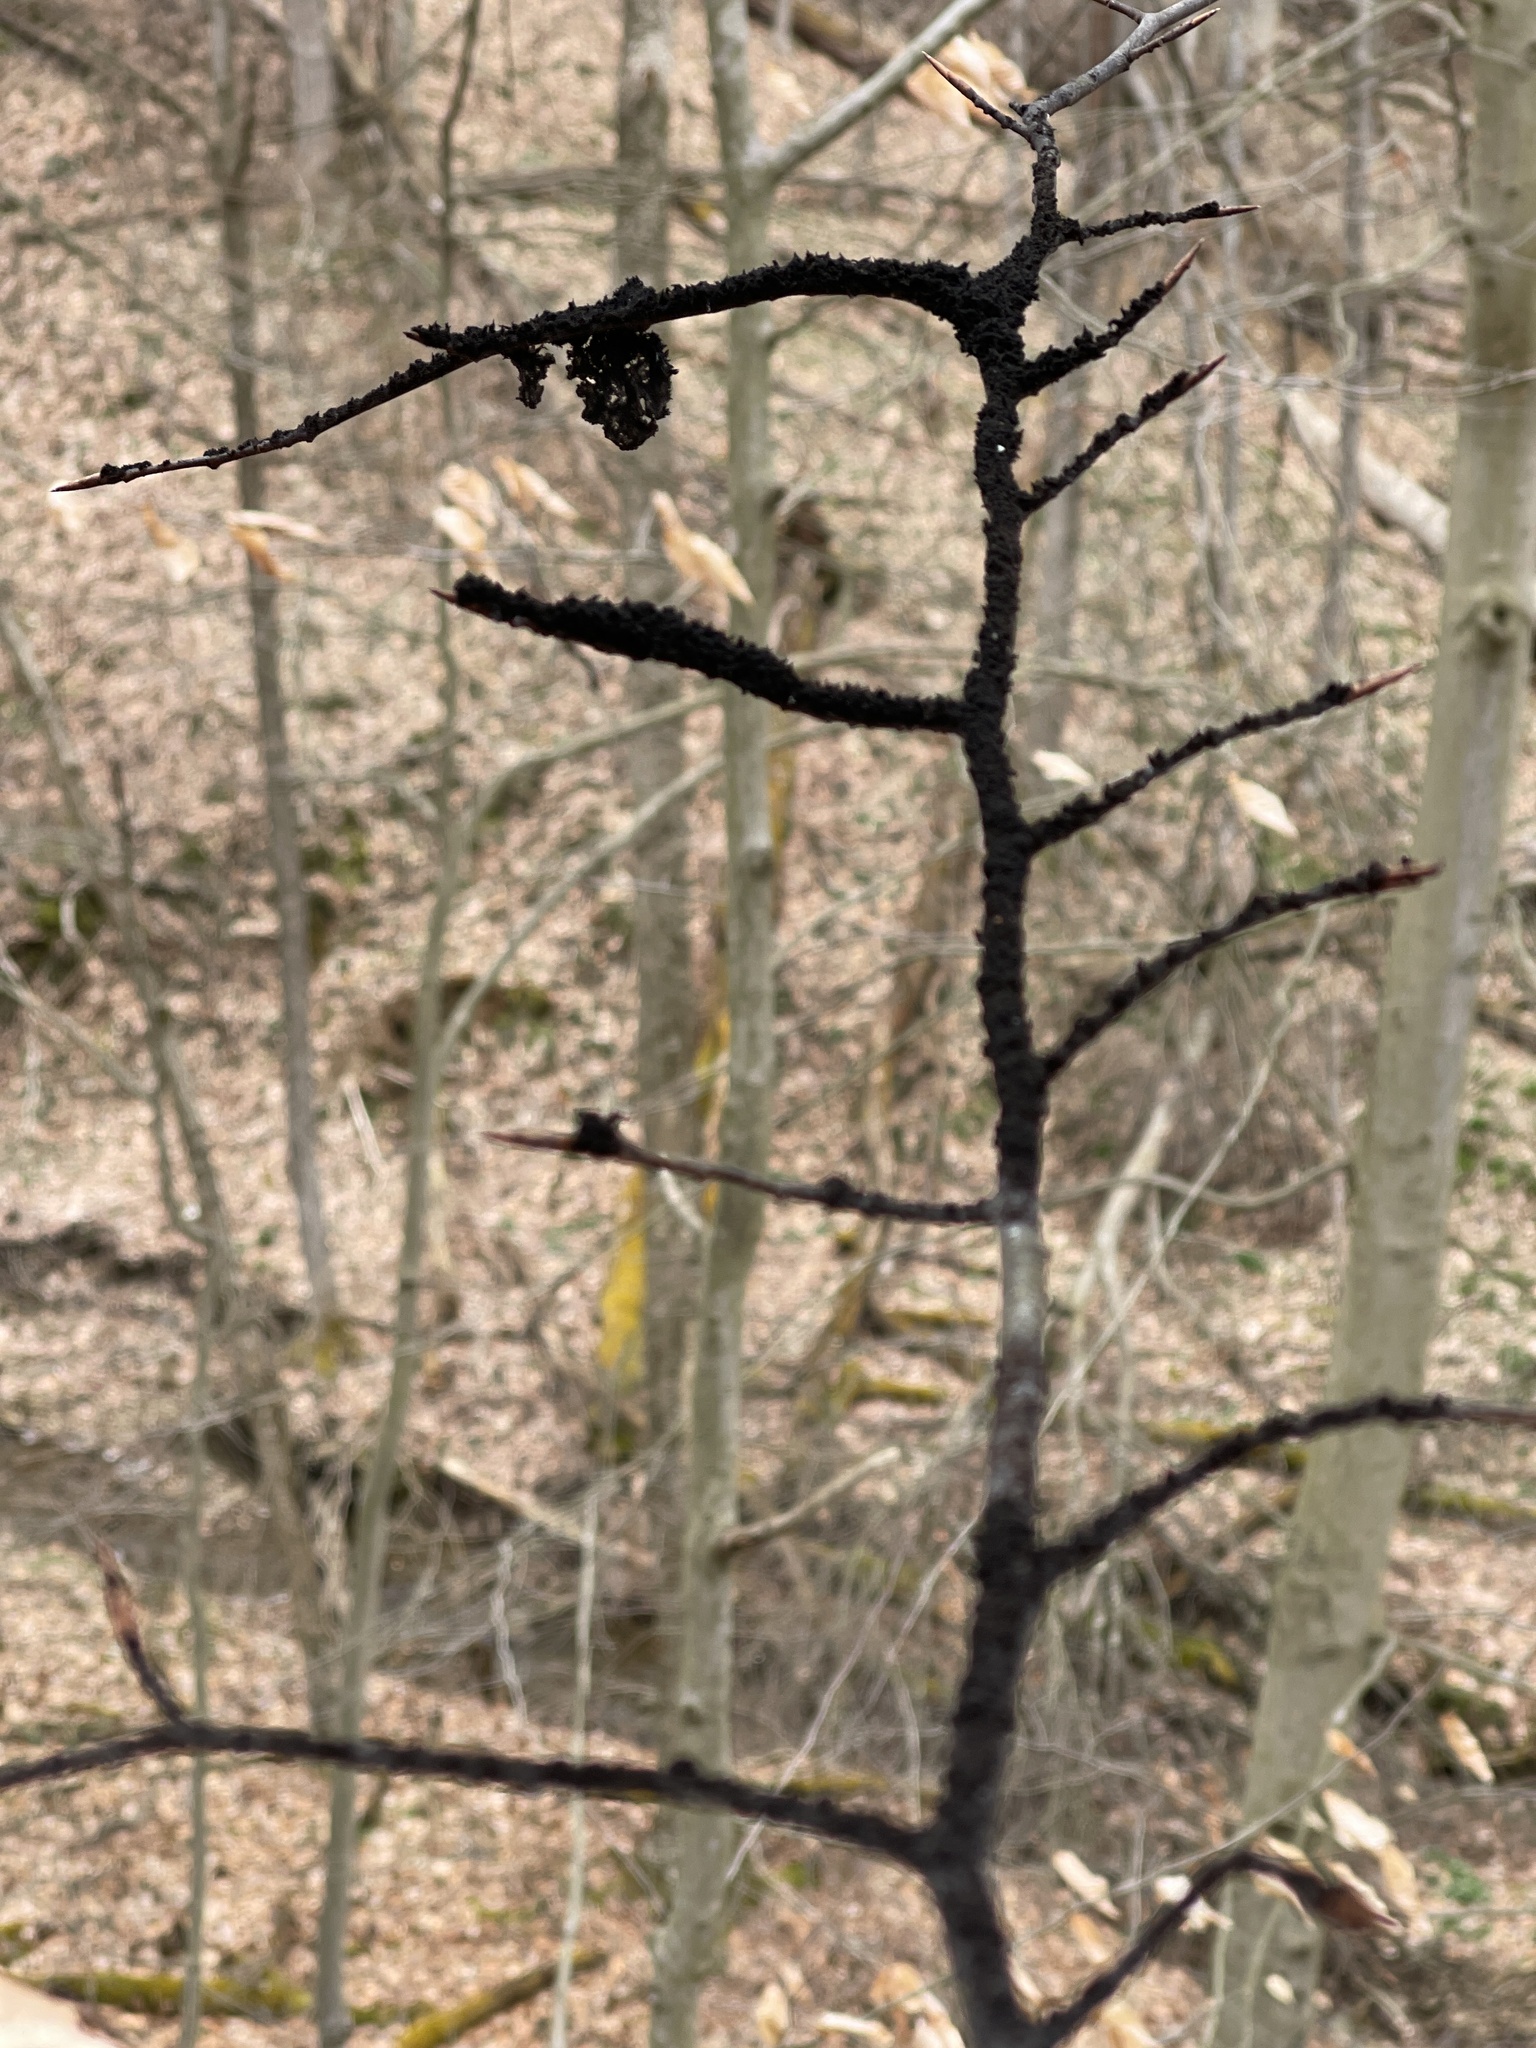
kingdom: Fungi
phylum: Ascomycota
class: Dothideomycetes
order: Capnodiales
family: Capnodiaceae
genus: Scorias
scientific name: Scorias spongiosa
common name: Black sooty mold
